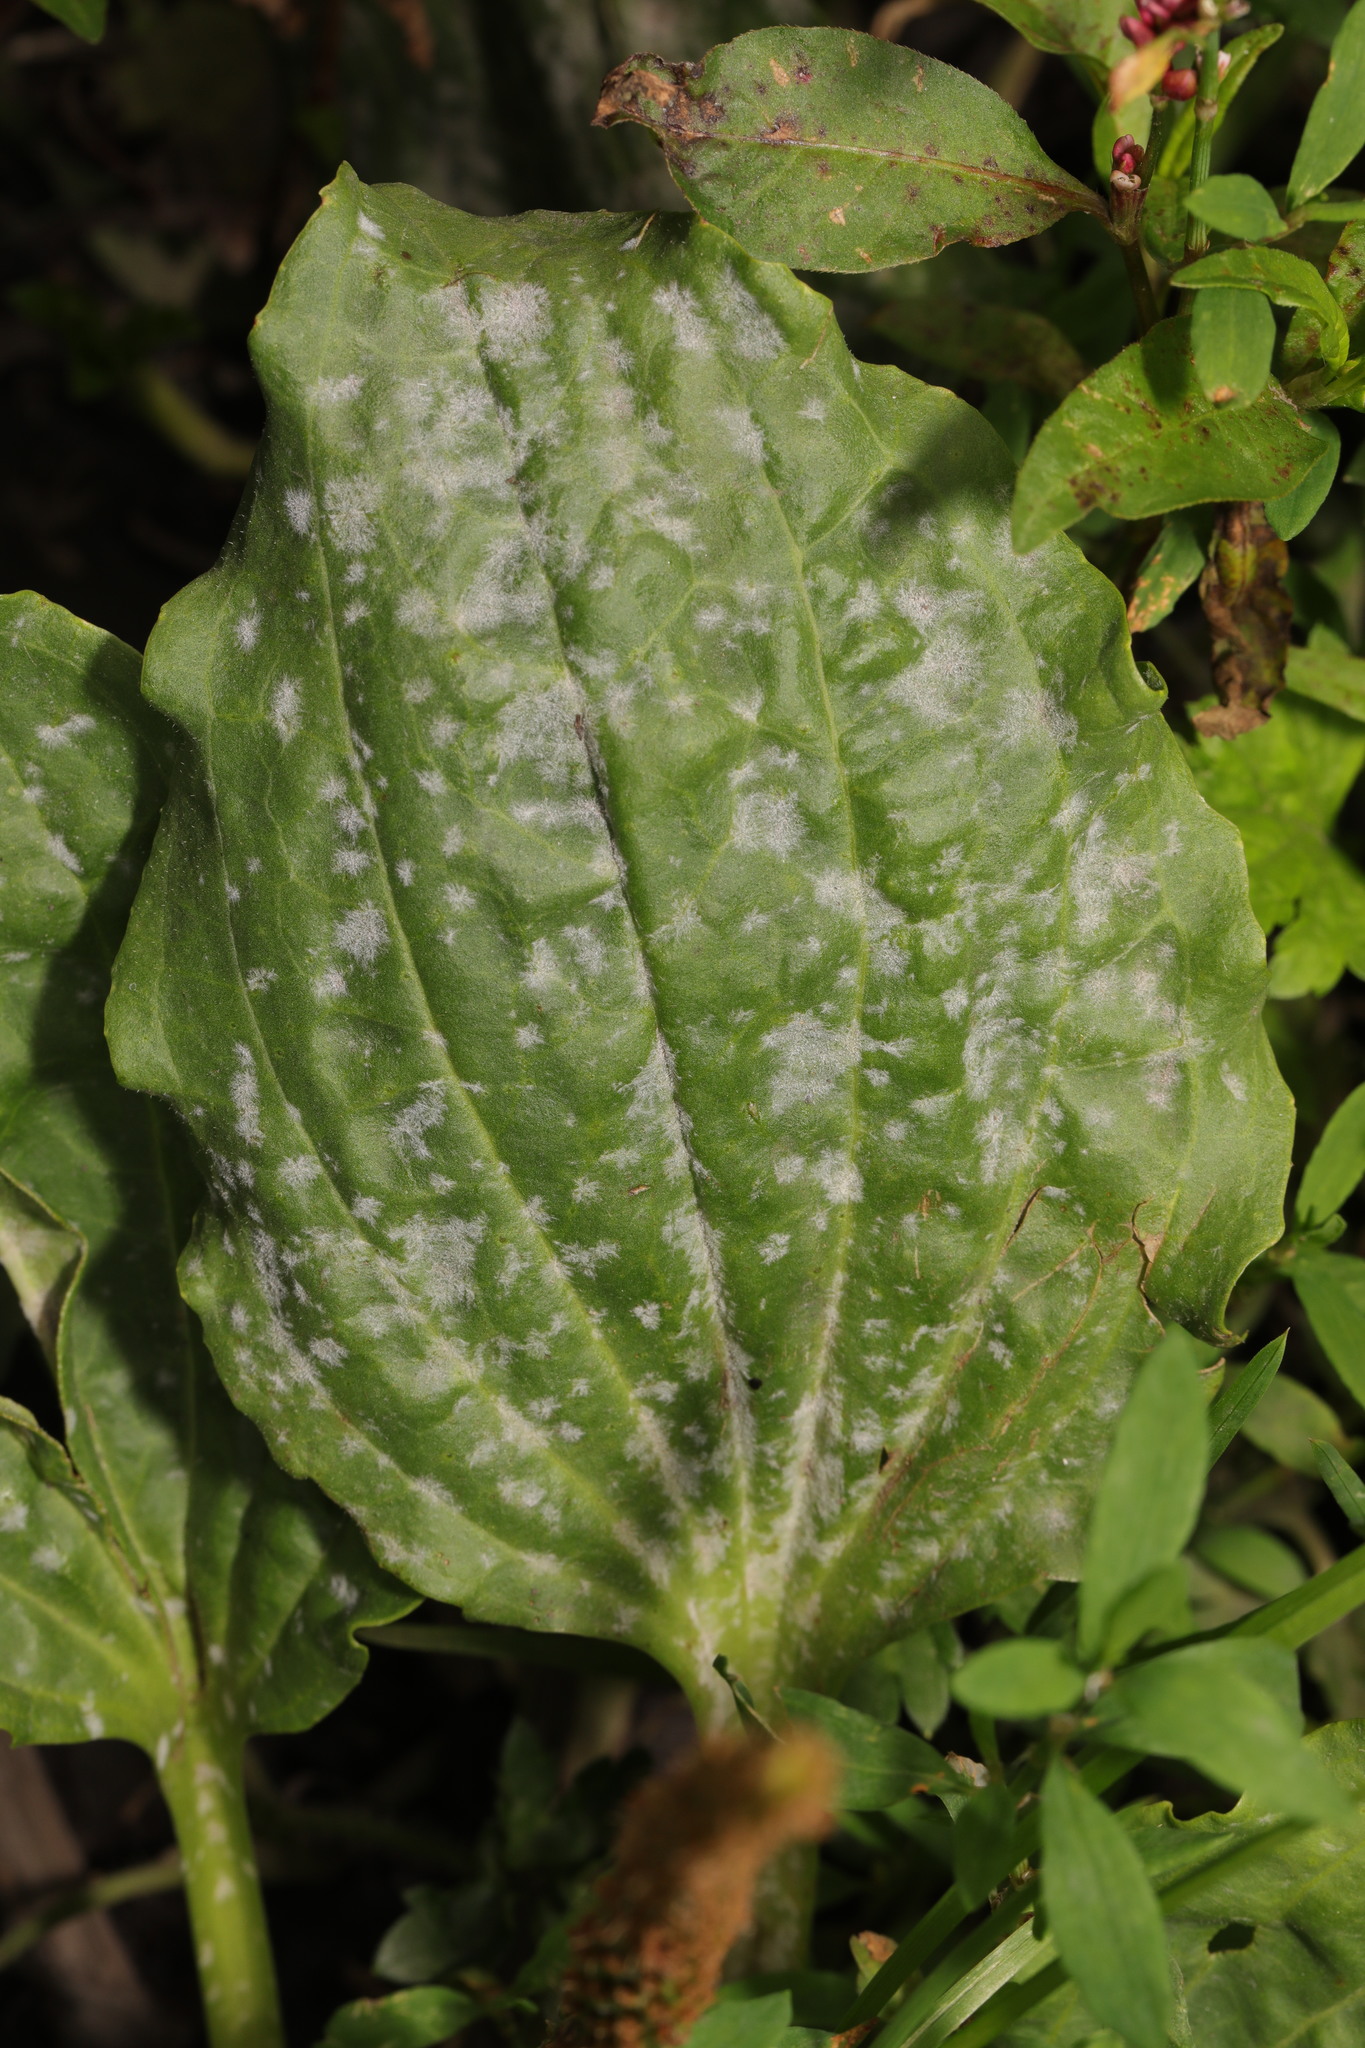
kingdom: Fungi
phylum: Ascomycota
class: Leotiomycetes
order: Helotiales
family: Erysiphaceae
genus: Golovinomyces
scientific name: Golovinomyces sordidus
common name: Plantain mildew
